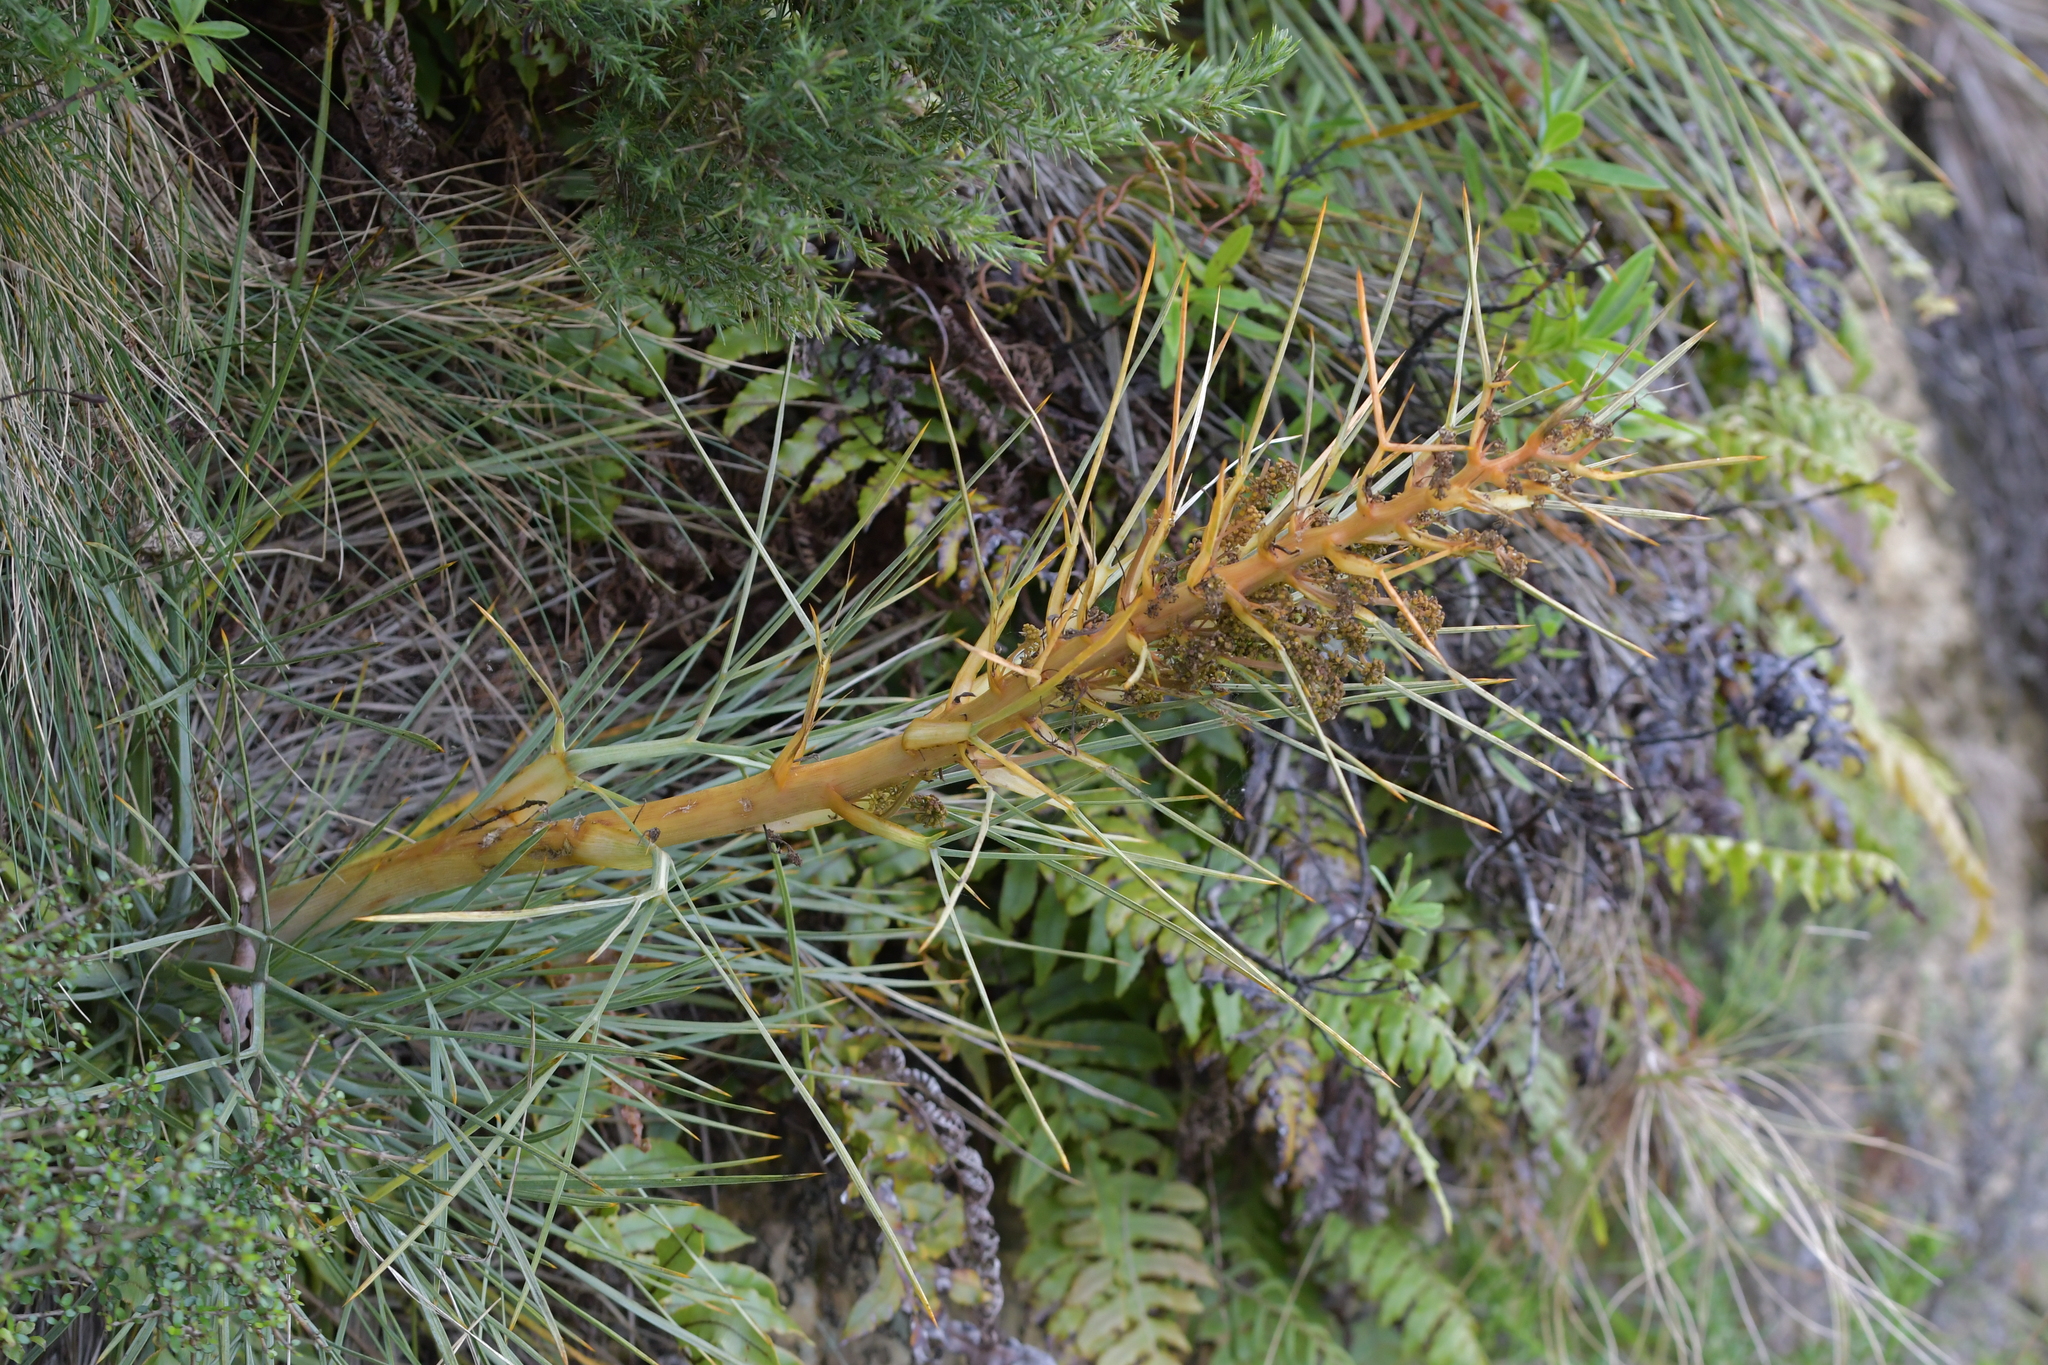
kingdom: Plantae
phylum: Tracheophyta
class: Magnoliopsida
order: Apiales
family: Apiaceae
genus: Aciphylla
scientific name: Aciphylla squarrosa
